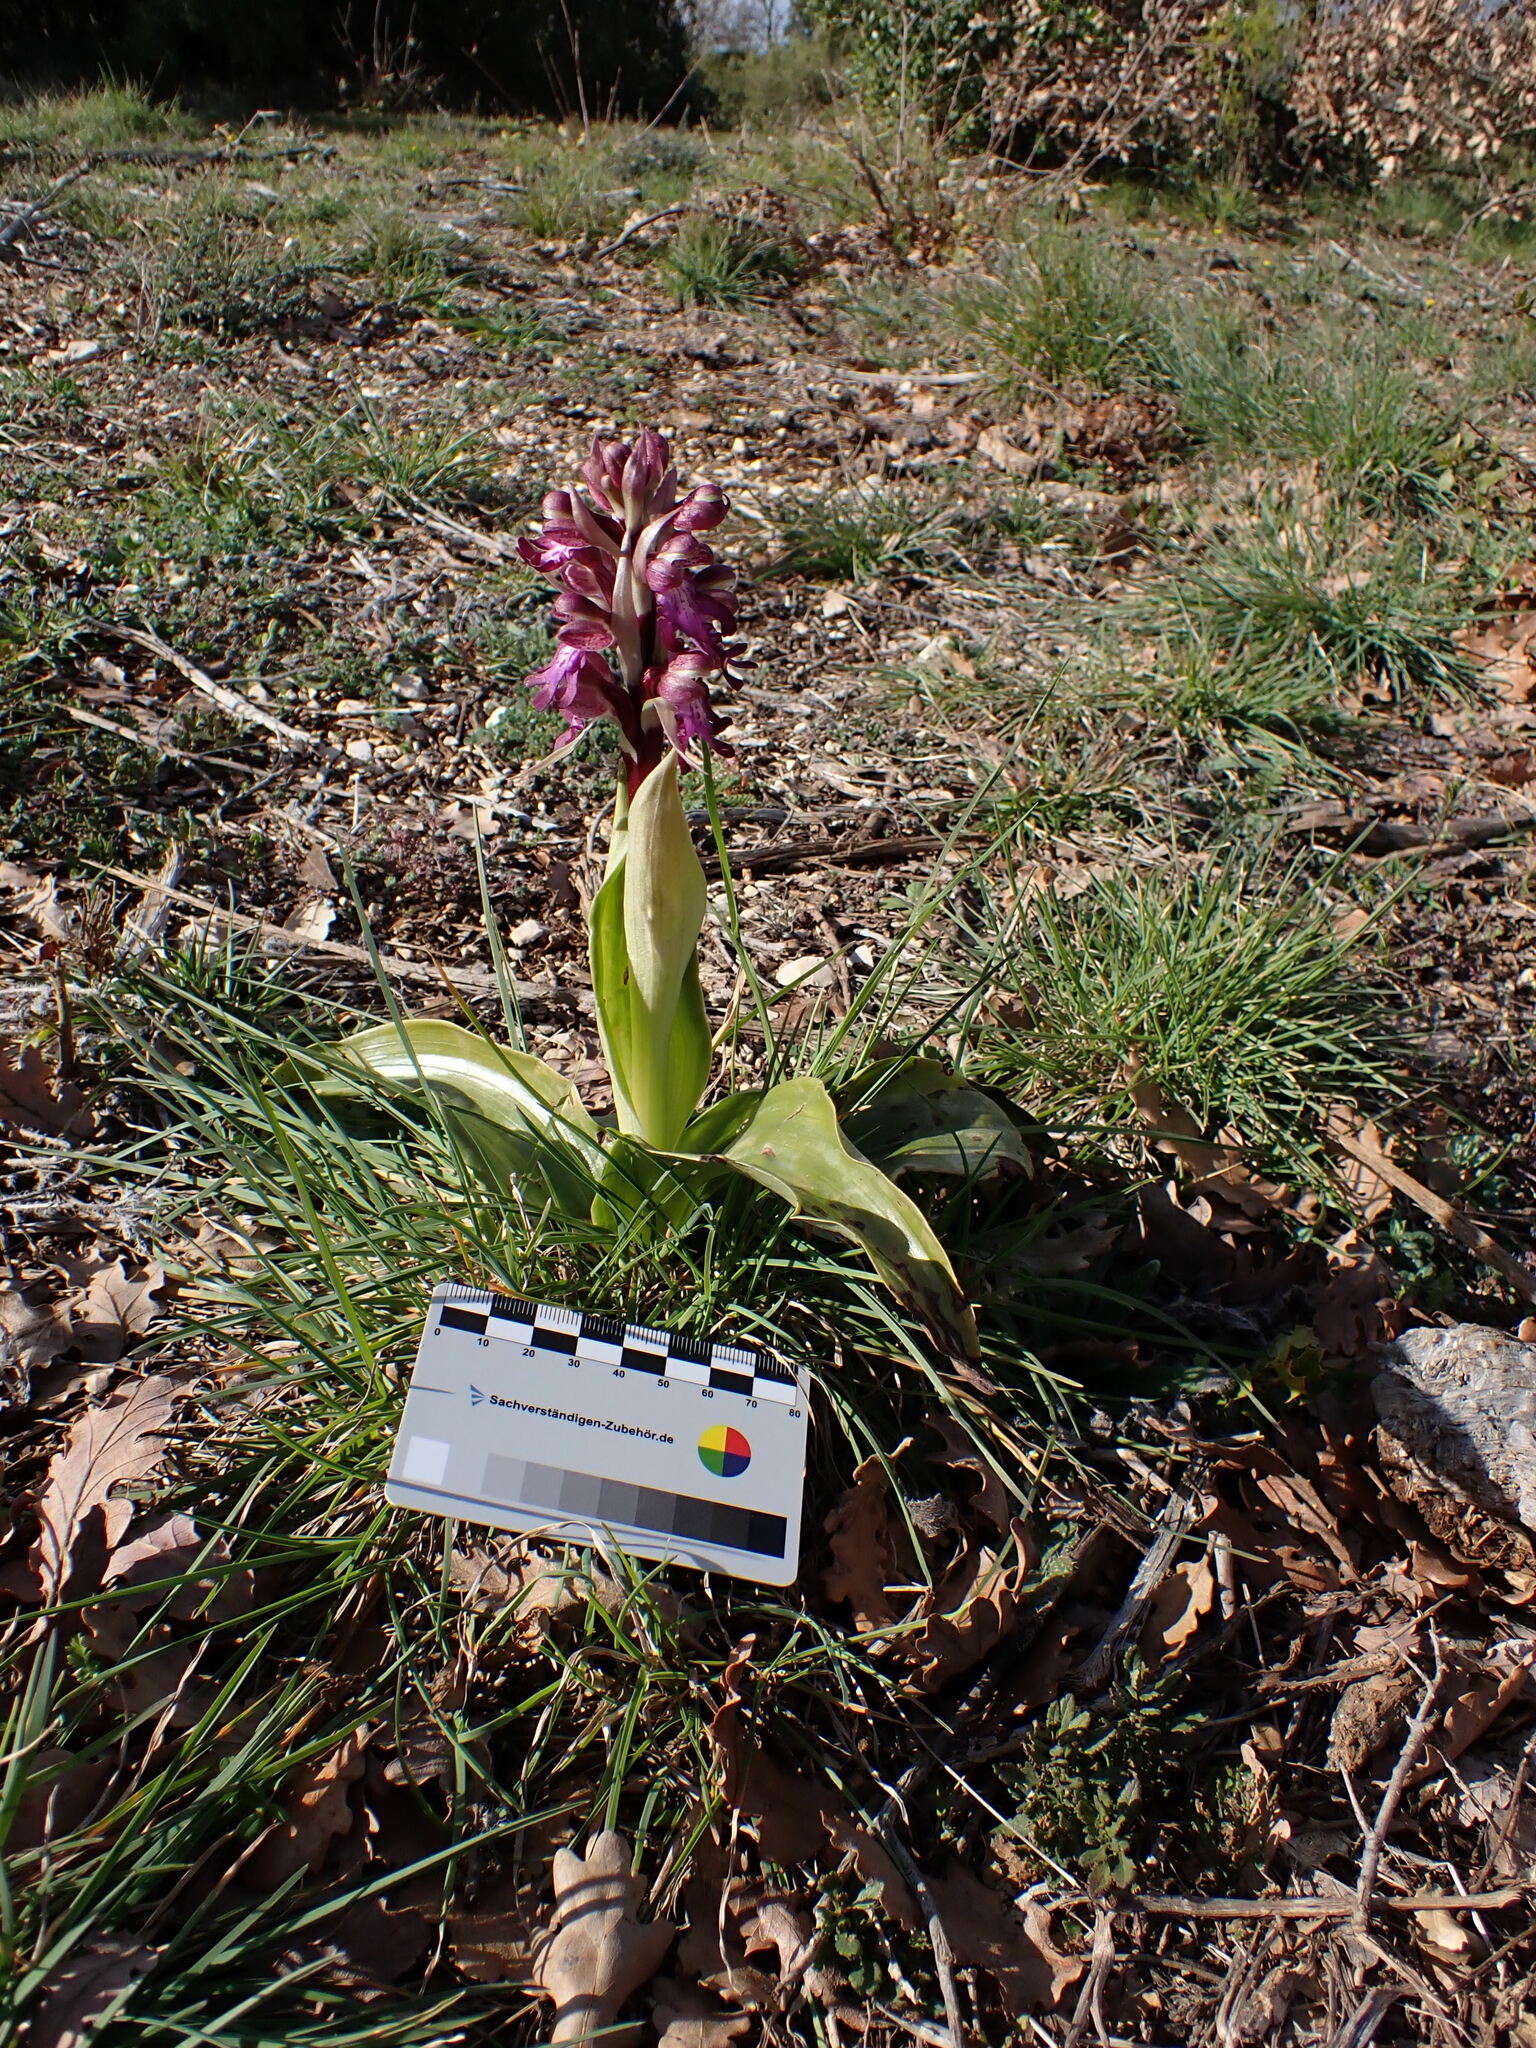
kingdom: Plantae
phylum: Tracheophyta
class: Liliopsida
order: Asparagales
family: Orchidaceae
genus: Himantoglossum
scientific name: Himantoglossum robertianum
